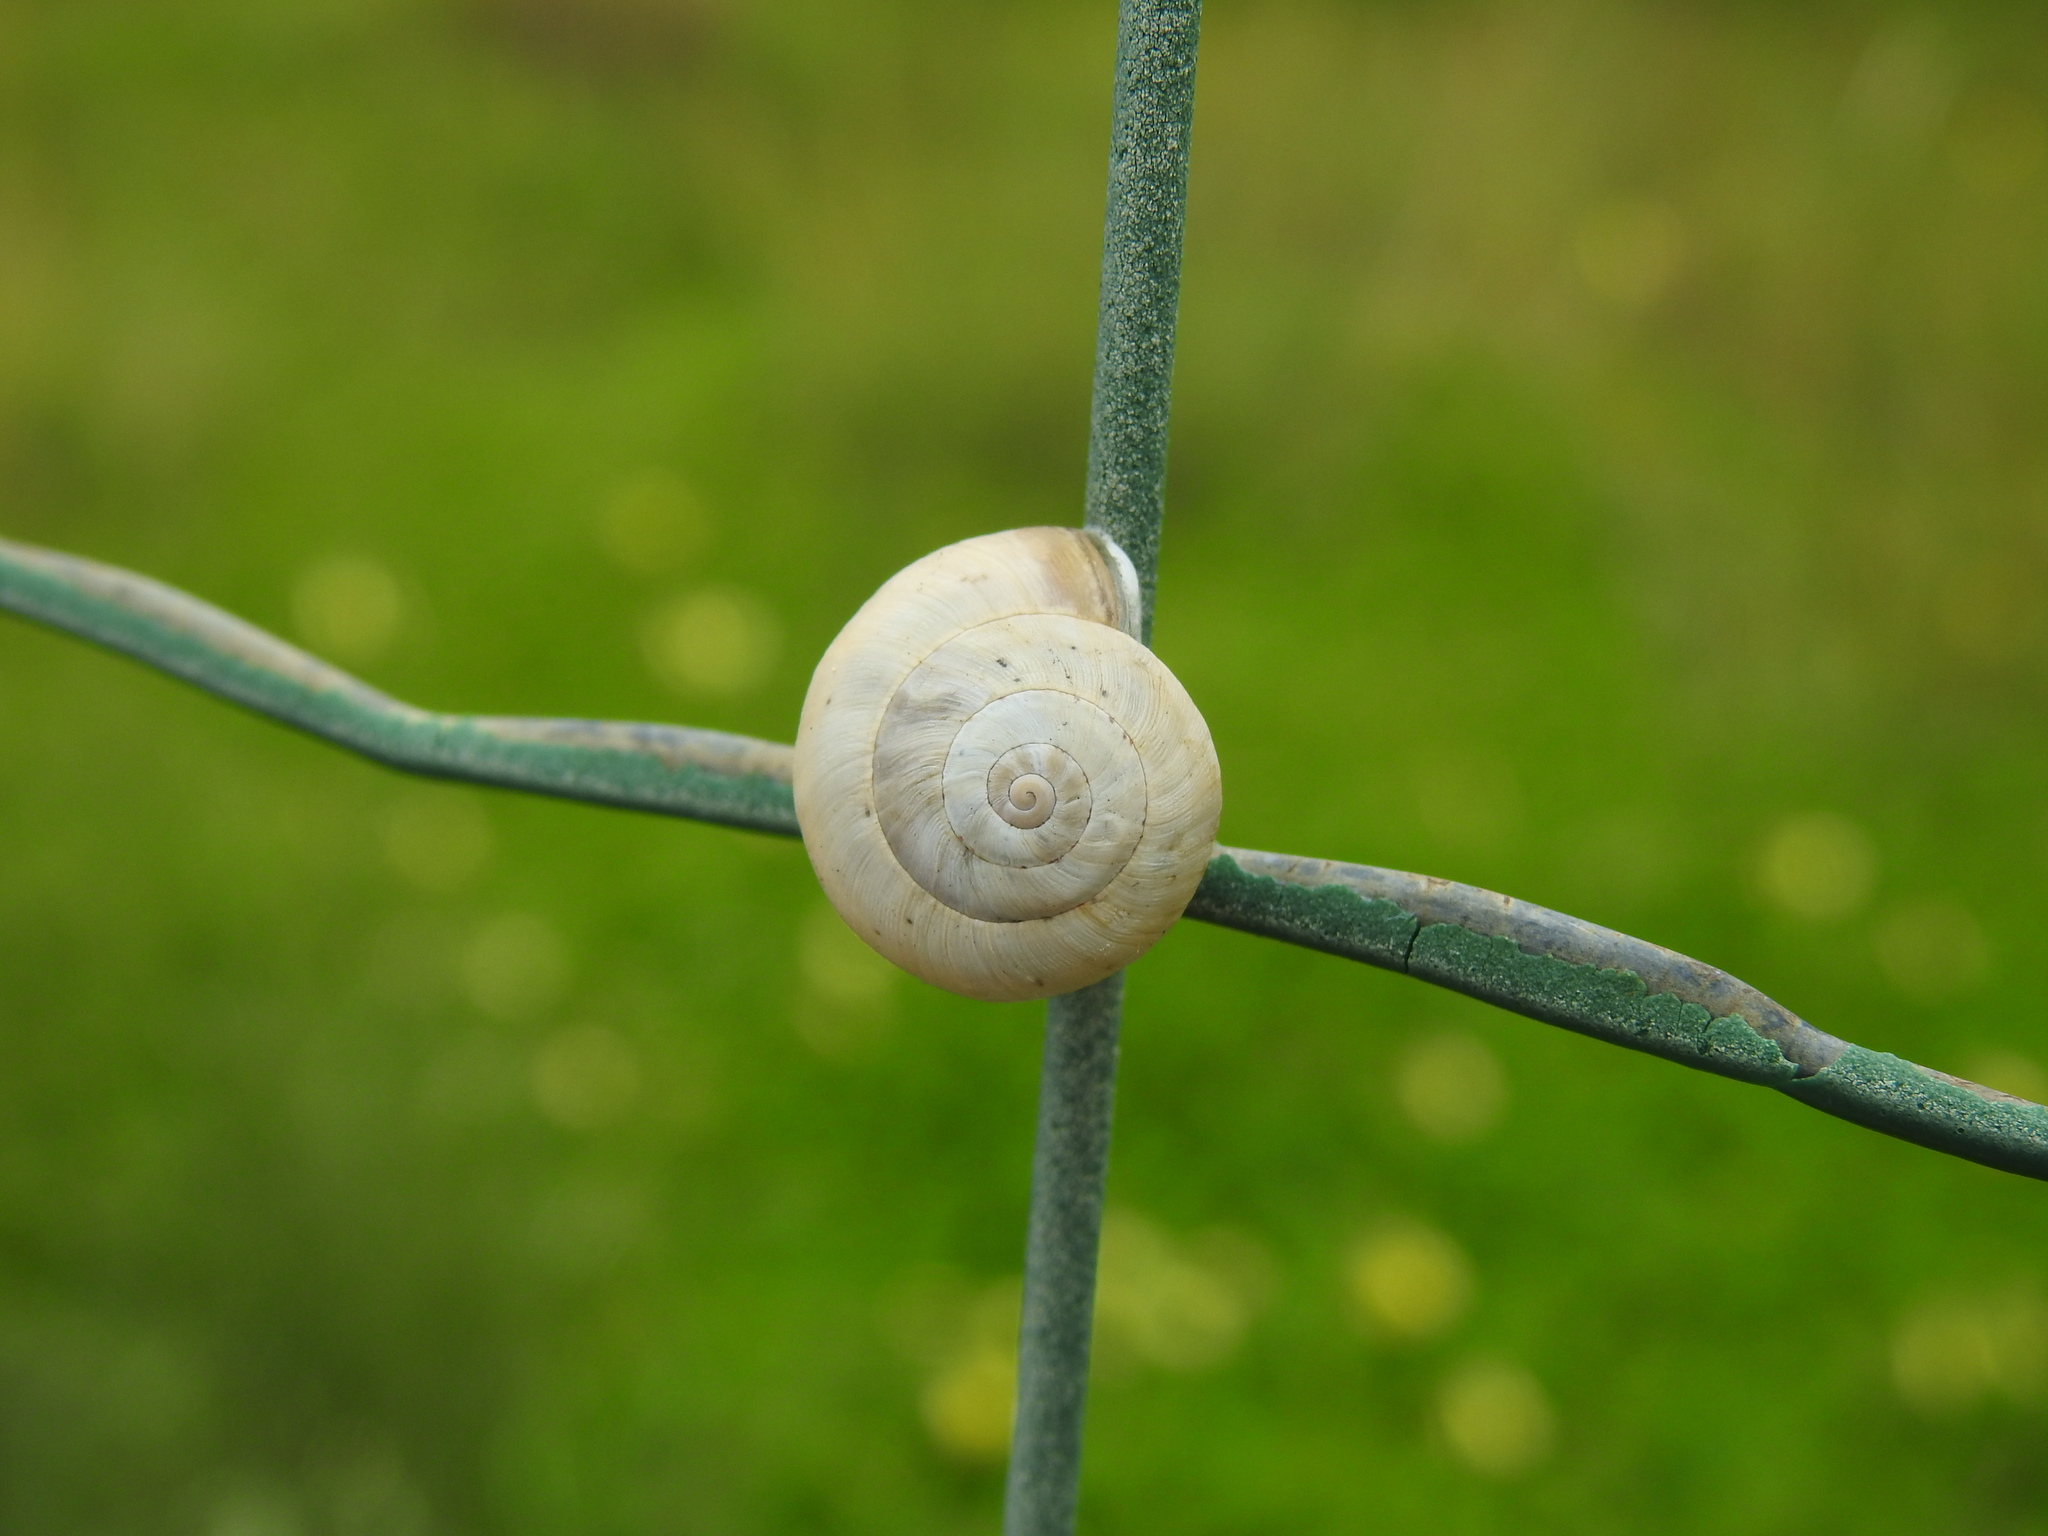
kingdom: Animalia
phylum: Mollusca
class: Gastropoda
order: Stylommatophora
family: Helicidae
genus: Theba
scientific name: Theba pisana
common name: White snail
